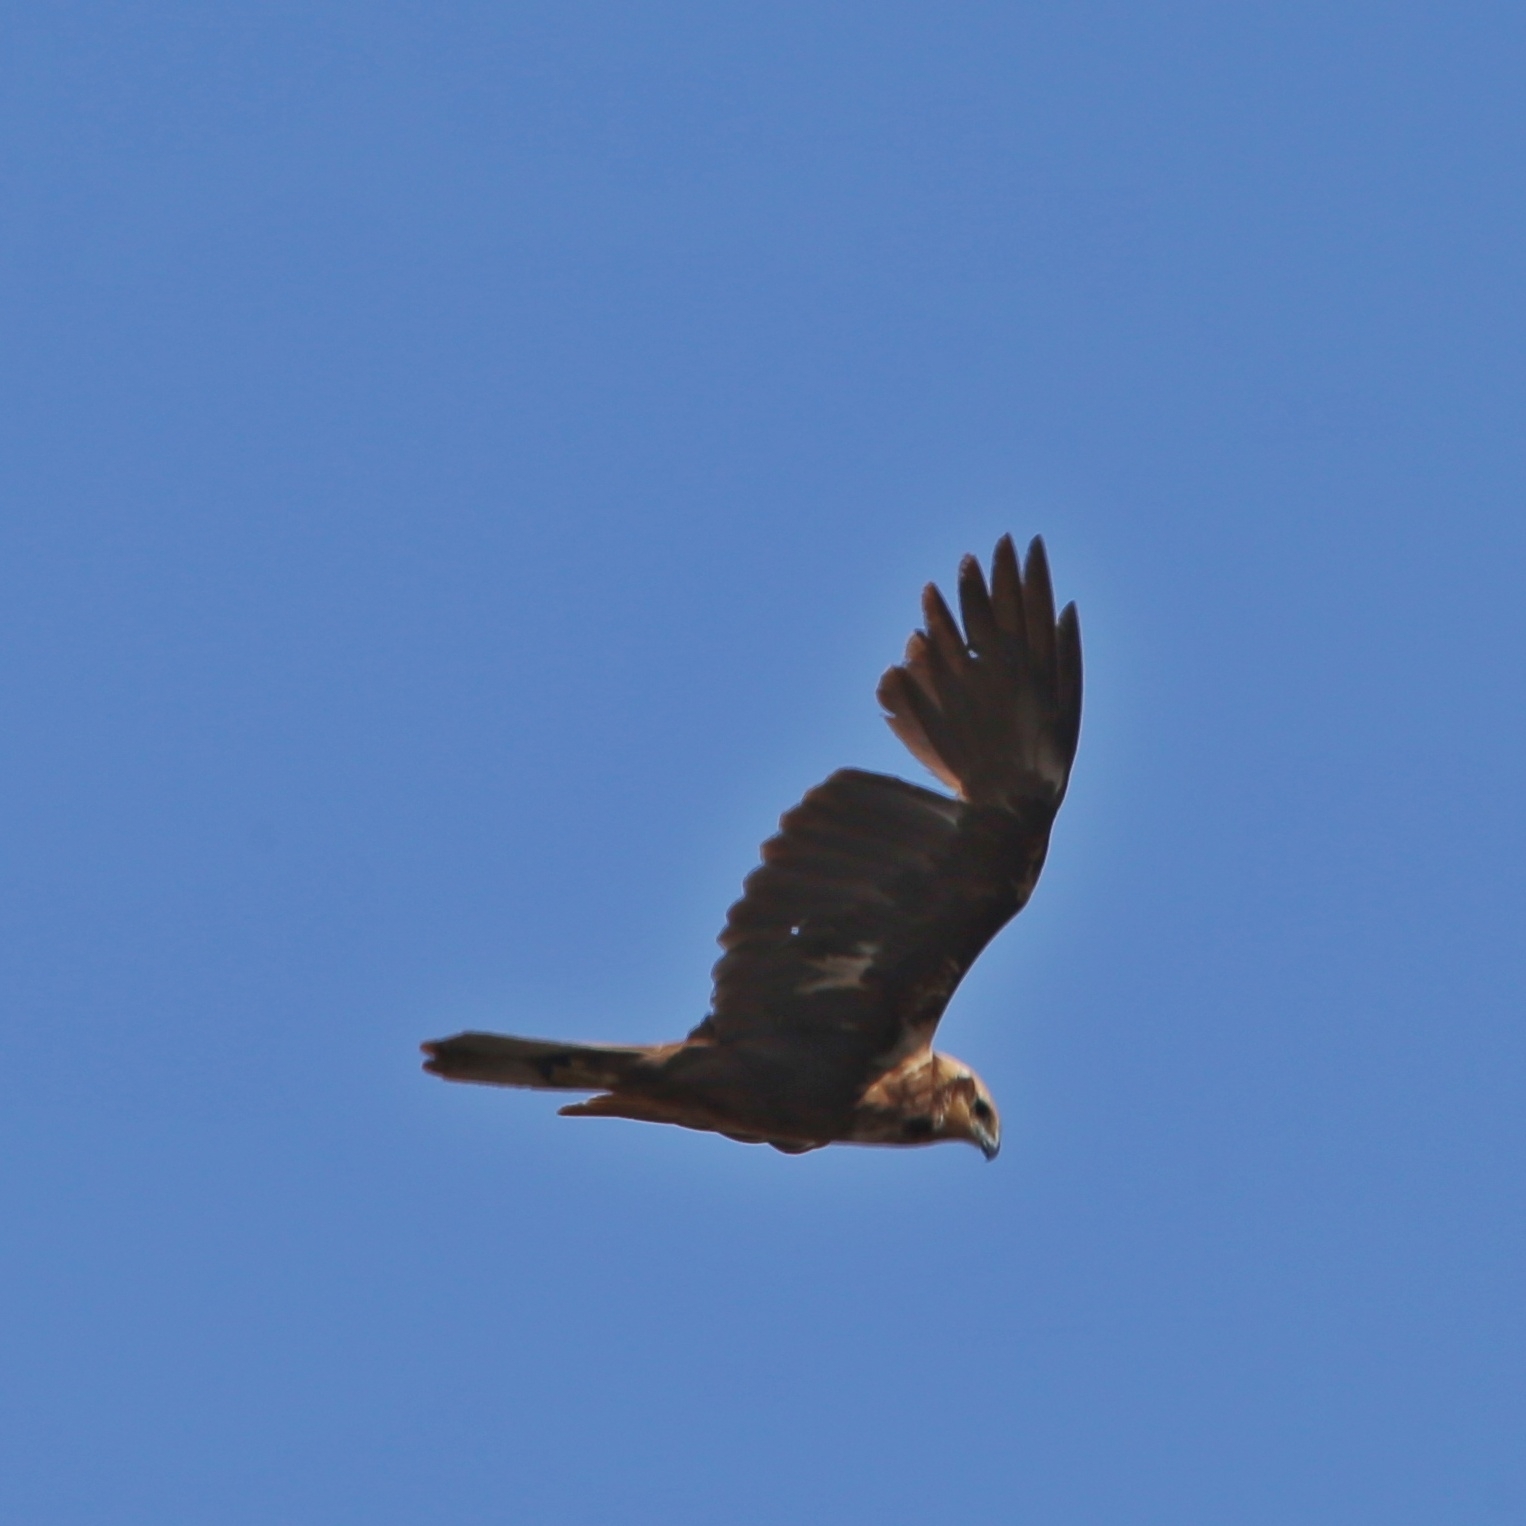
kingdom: Animalia
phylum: Chordata
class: Aves
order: Accipitriformes
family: Accipitridae
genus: Circus
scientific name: Circus aeruginosus
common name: Western marsh harrier
